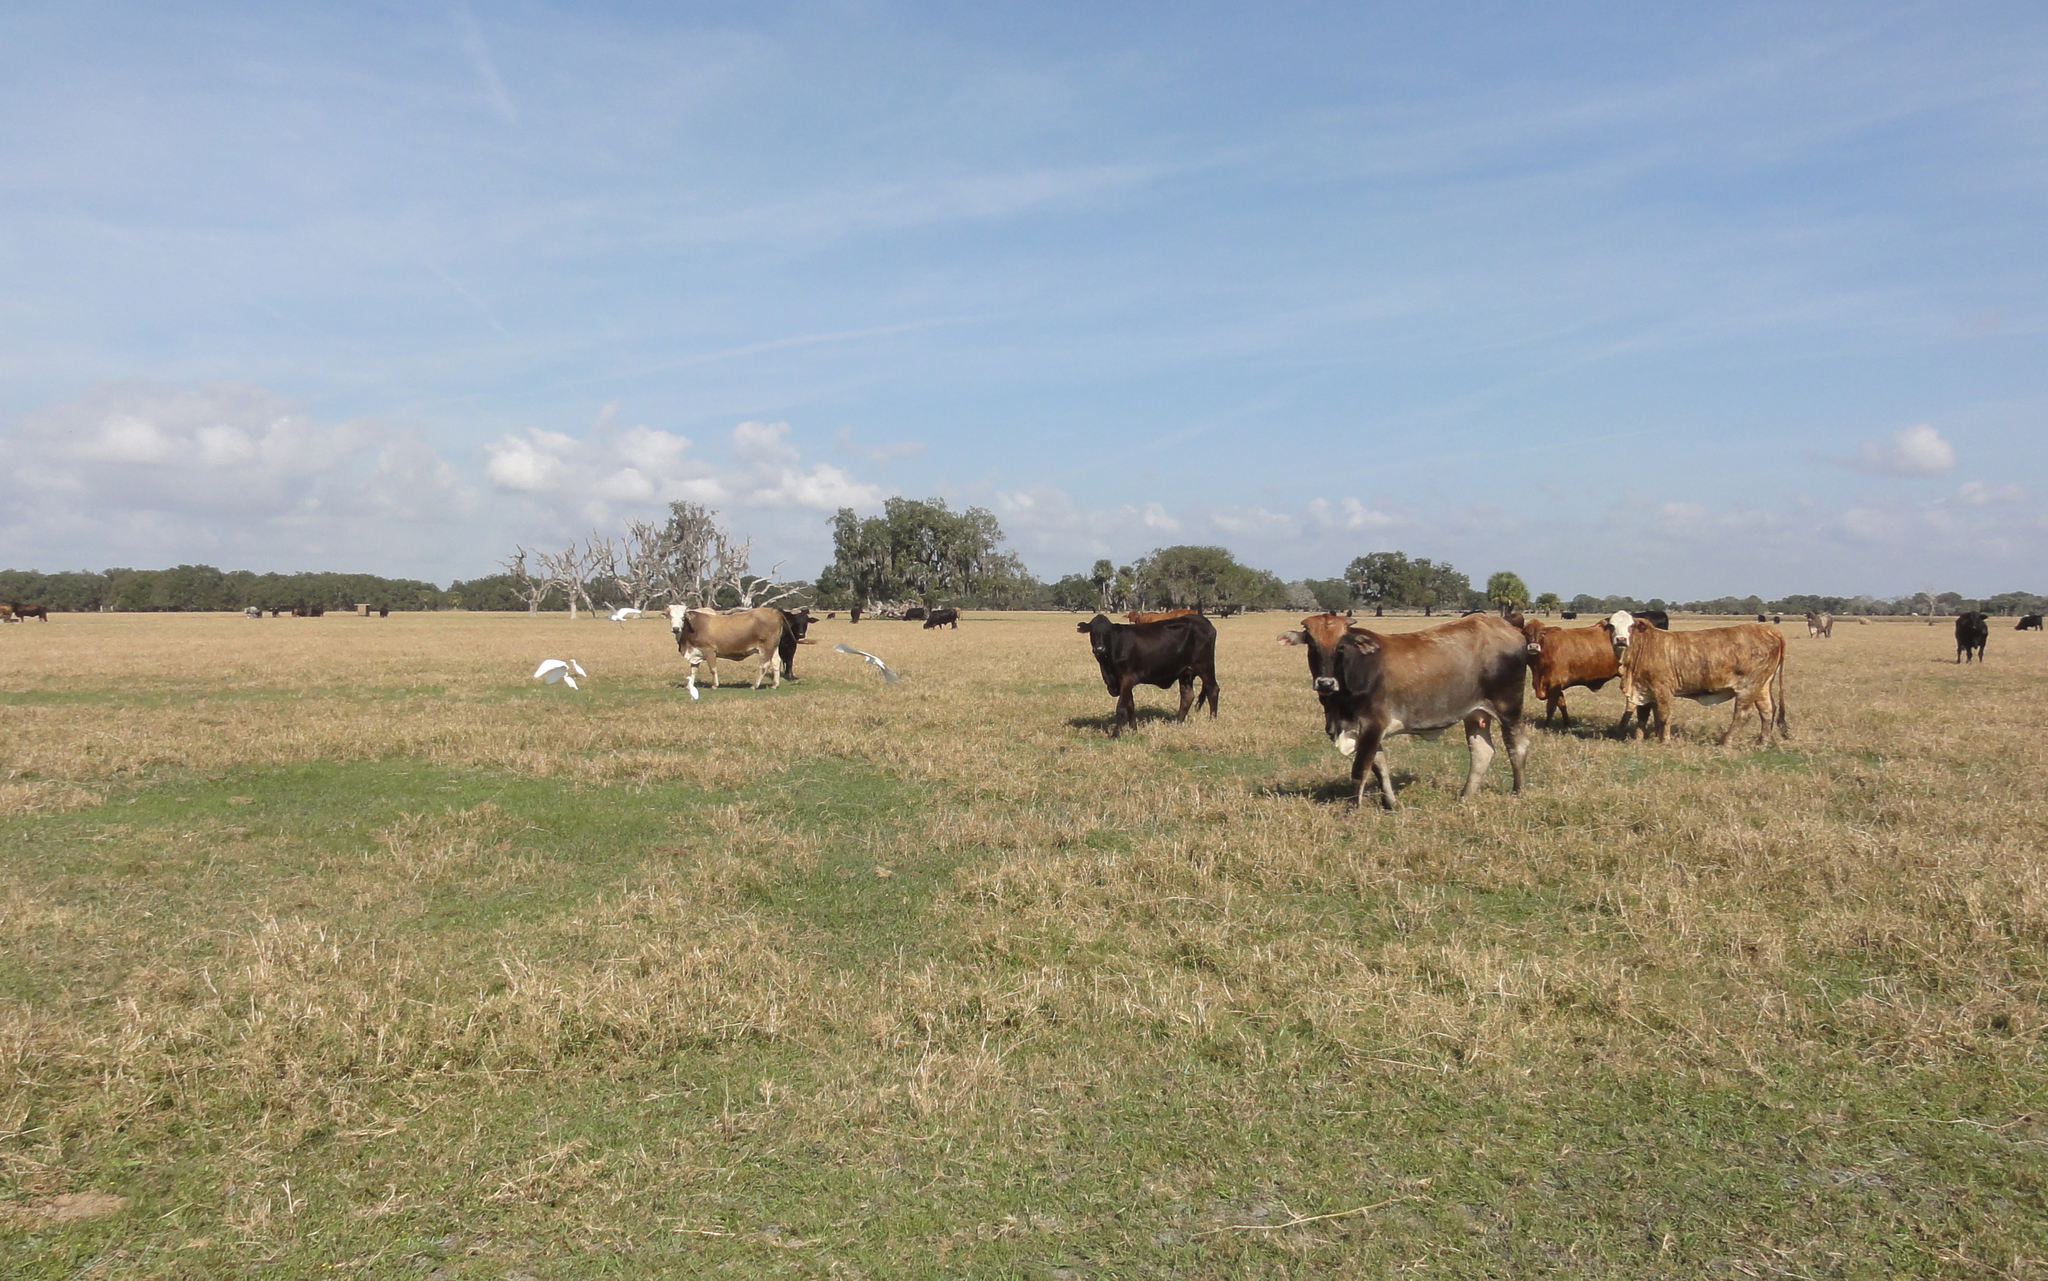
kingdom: Animalia
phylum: Chordata
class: Aves
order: Pelecaniformes
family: Ardeidae
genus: Bubulcus
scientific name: Bubulcus ibis
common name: Cattle egret
